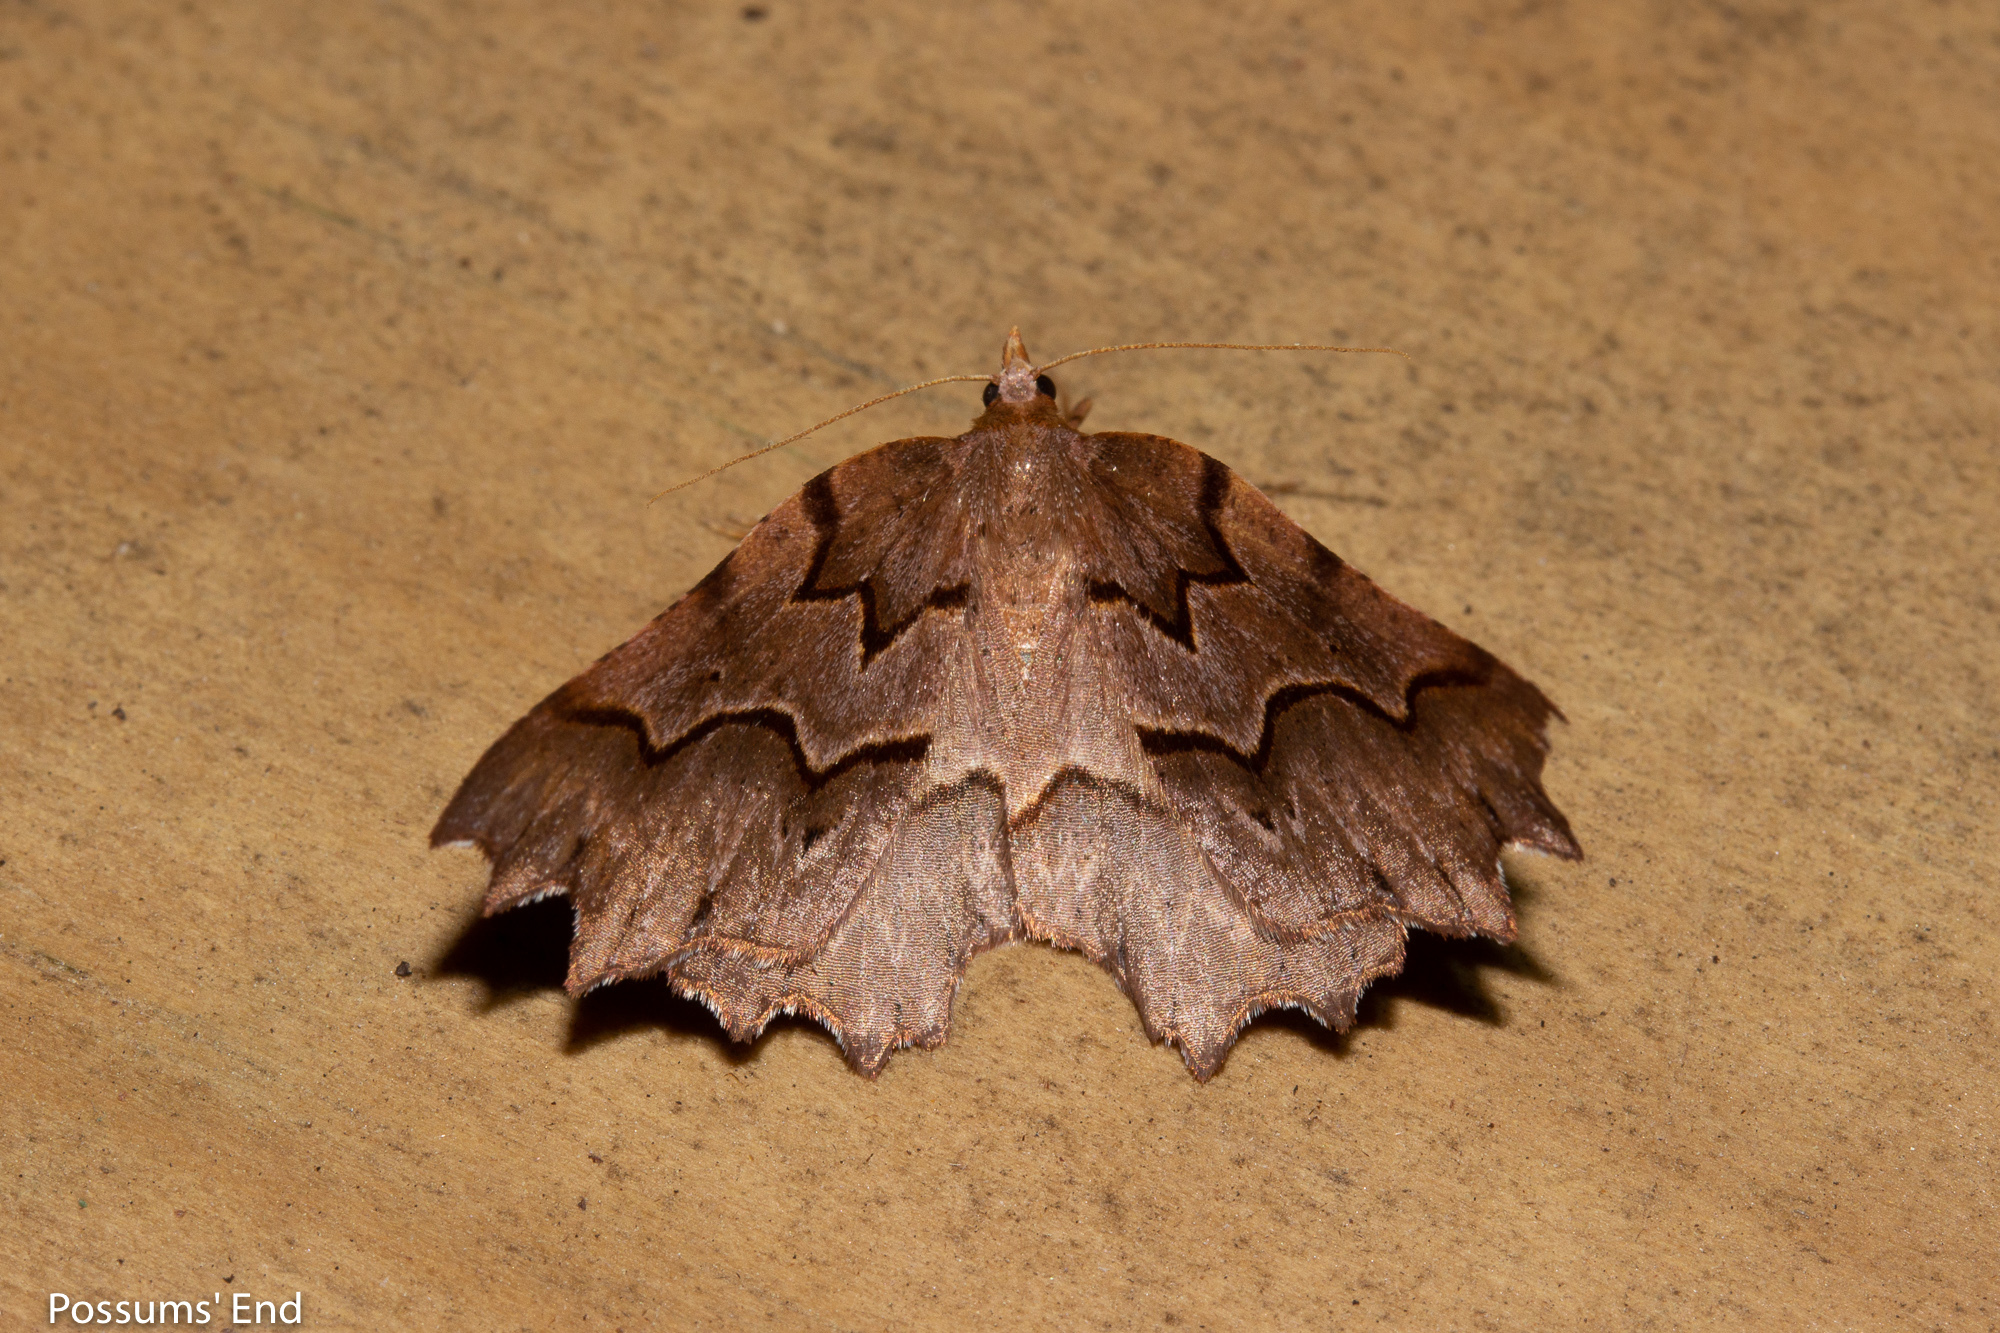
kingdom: Animalia
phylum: Arthropoda
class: Insecta
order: Lepidoptera
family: Geometridae
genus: Ischalis
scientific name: Ischalis fortinata
